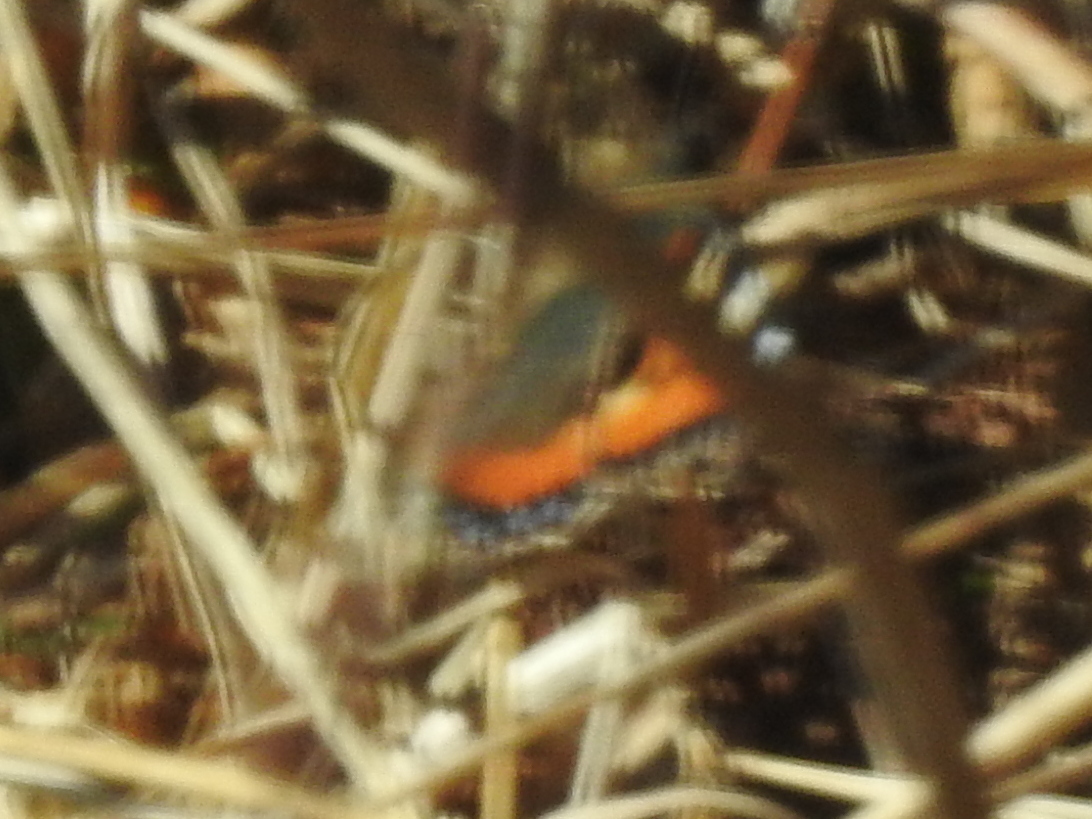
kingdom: Animalia
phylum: Arthropoda
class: Insecta
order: Lepidoptera
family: Nymphalidae
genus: Aglais
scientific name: Aglais urticae
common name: Small tortoiseshell
